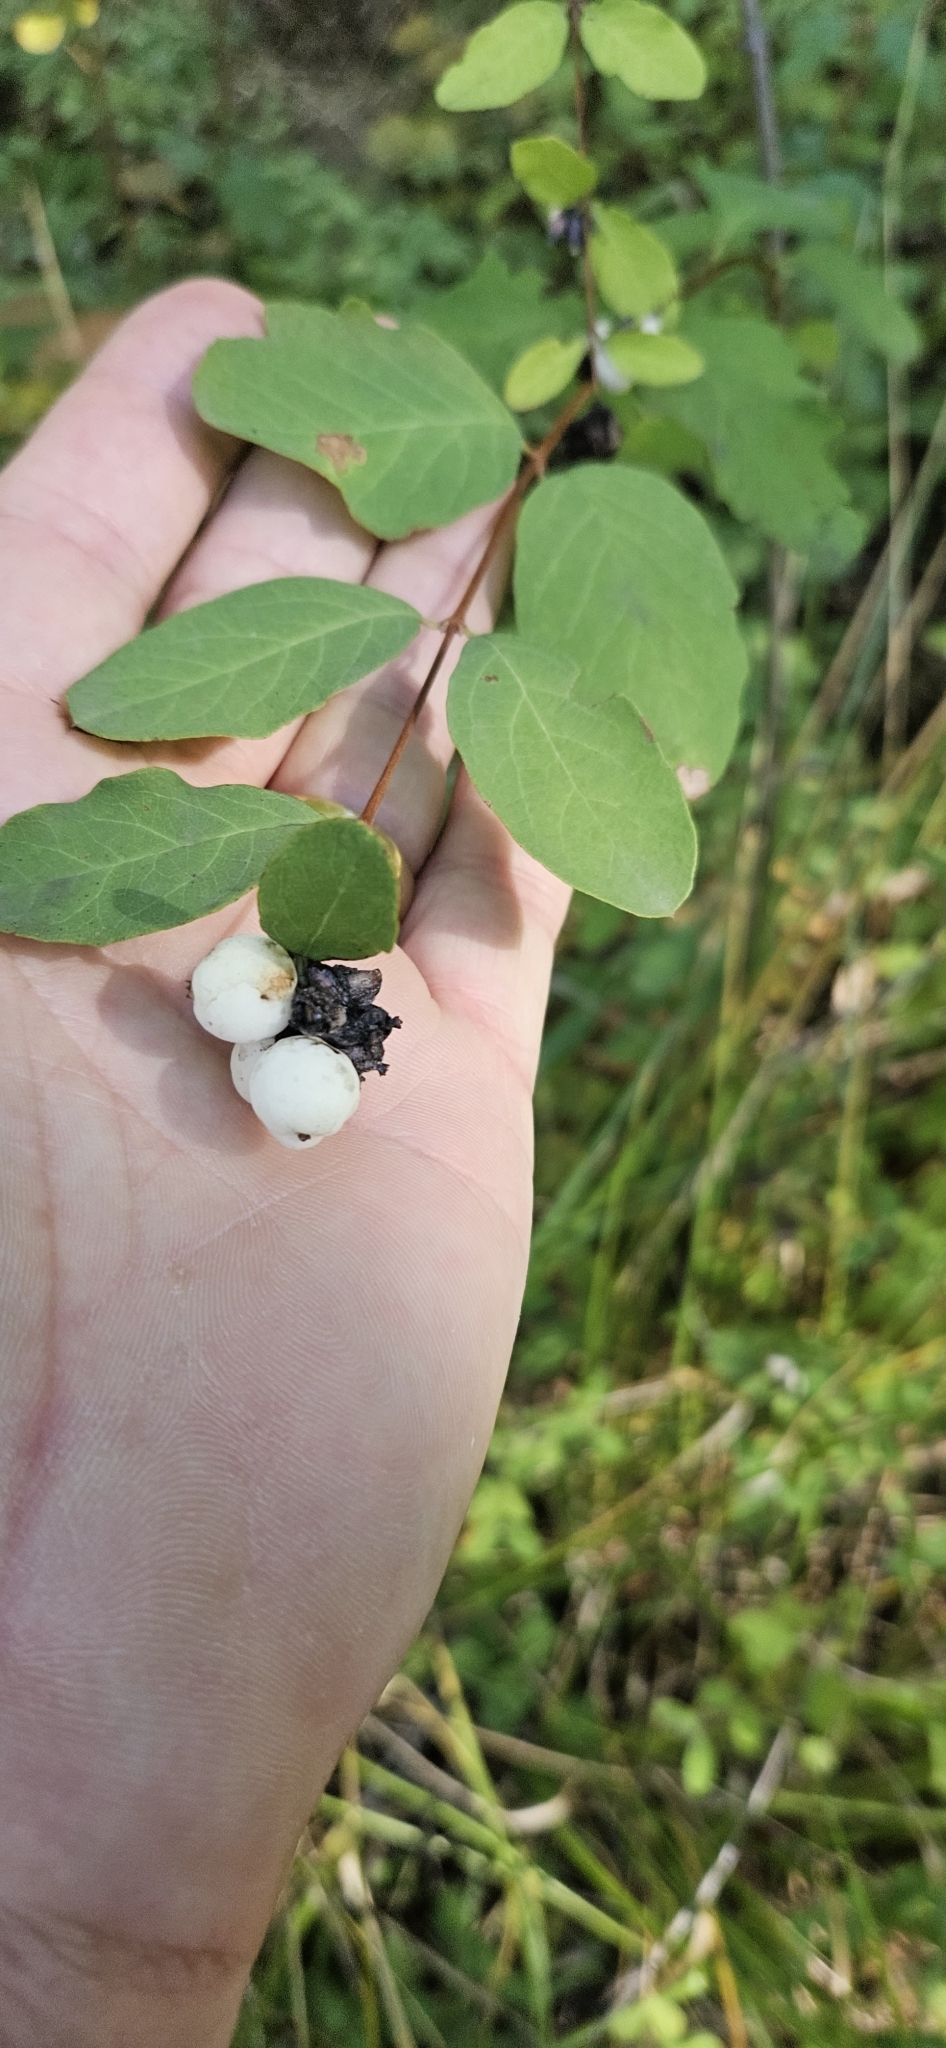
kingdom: Plantae
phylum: Tracheophyta
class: Magnoliopsida
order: Dipsacales
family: Caprifoliaceae
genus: Symphoricarpos
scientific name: Symphoricarpos albus
